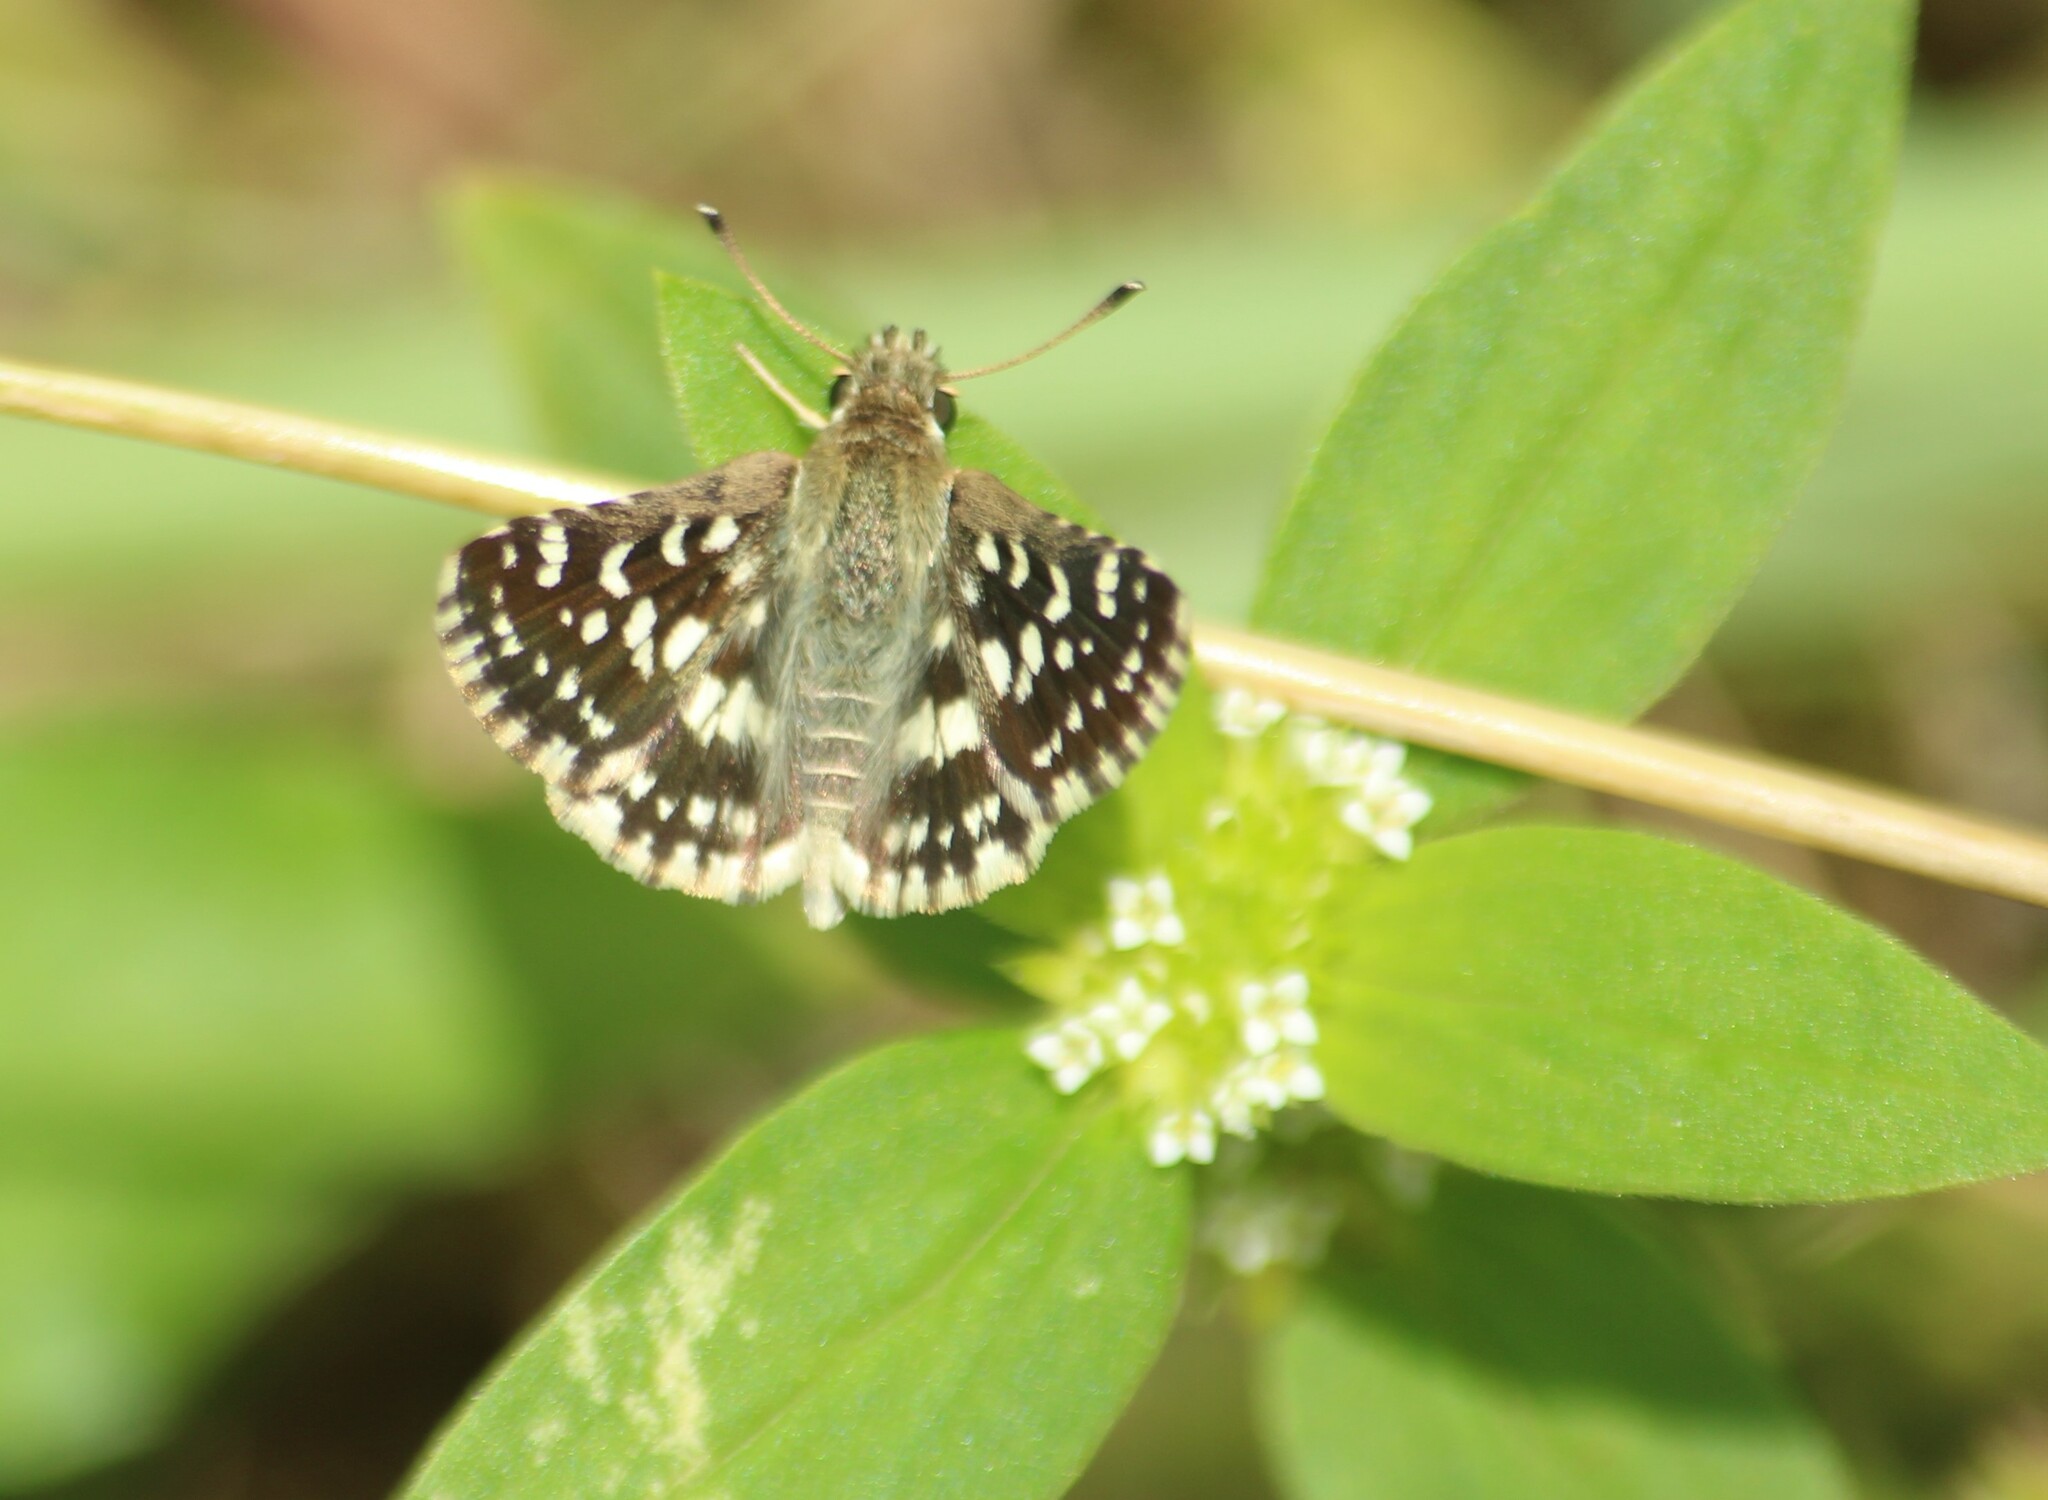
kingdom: Animalia
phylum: Arthropoda
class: Insecta
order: Lepidoptera
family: Hesperiidae
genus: Spialia
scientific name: Spialia galba
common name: Indian skipper
